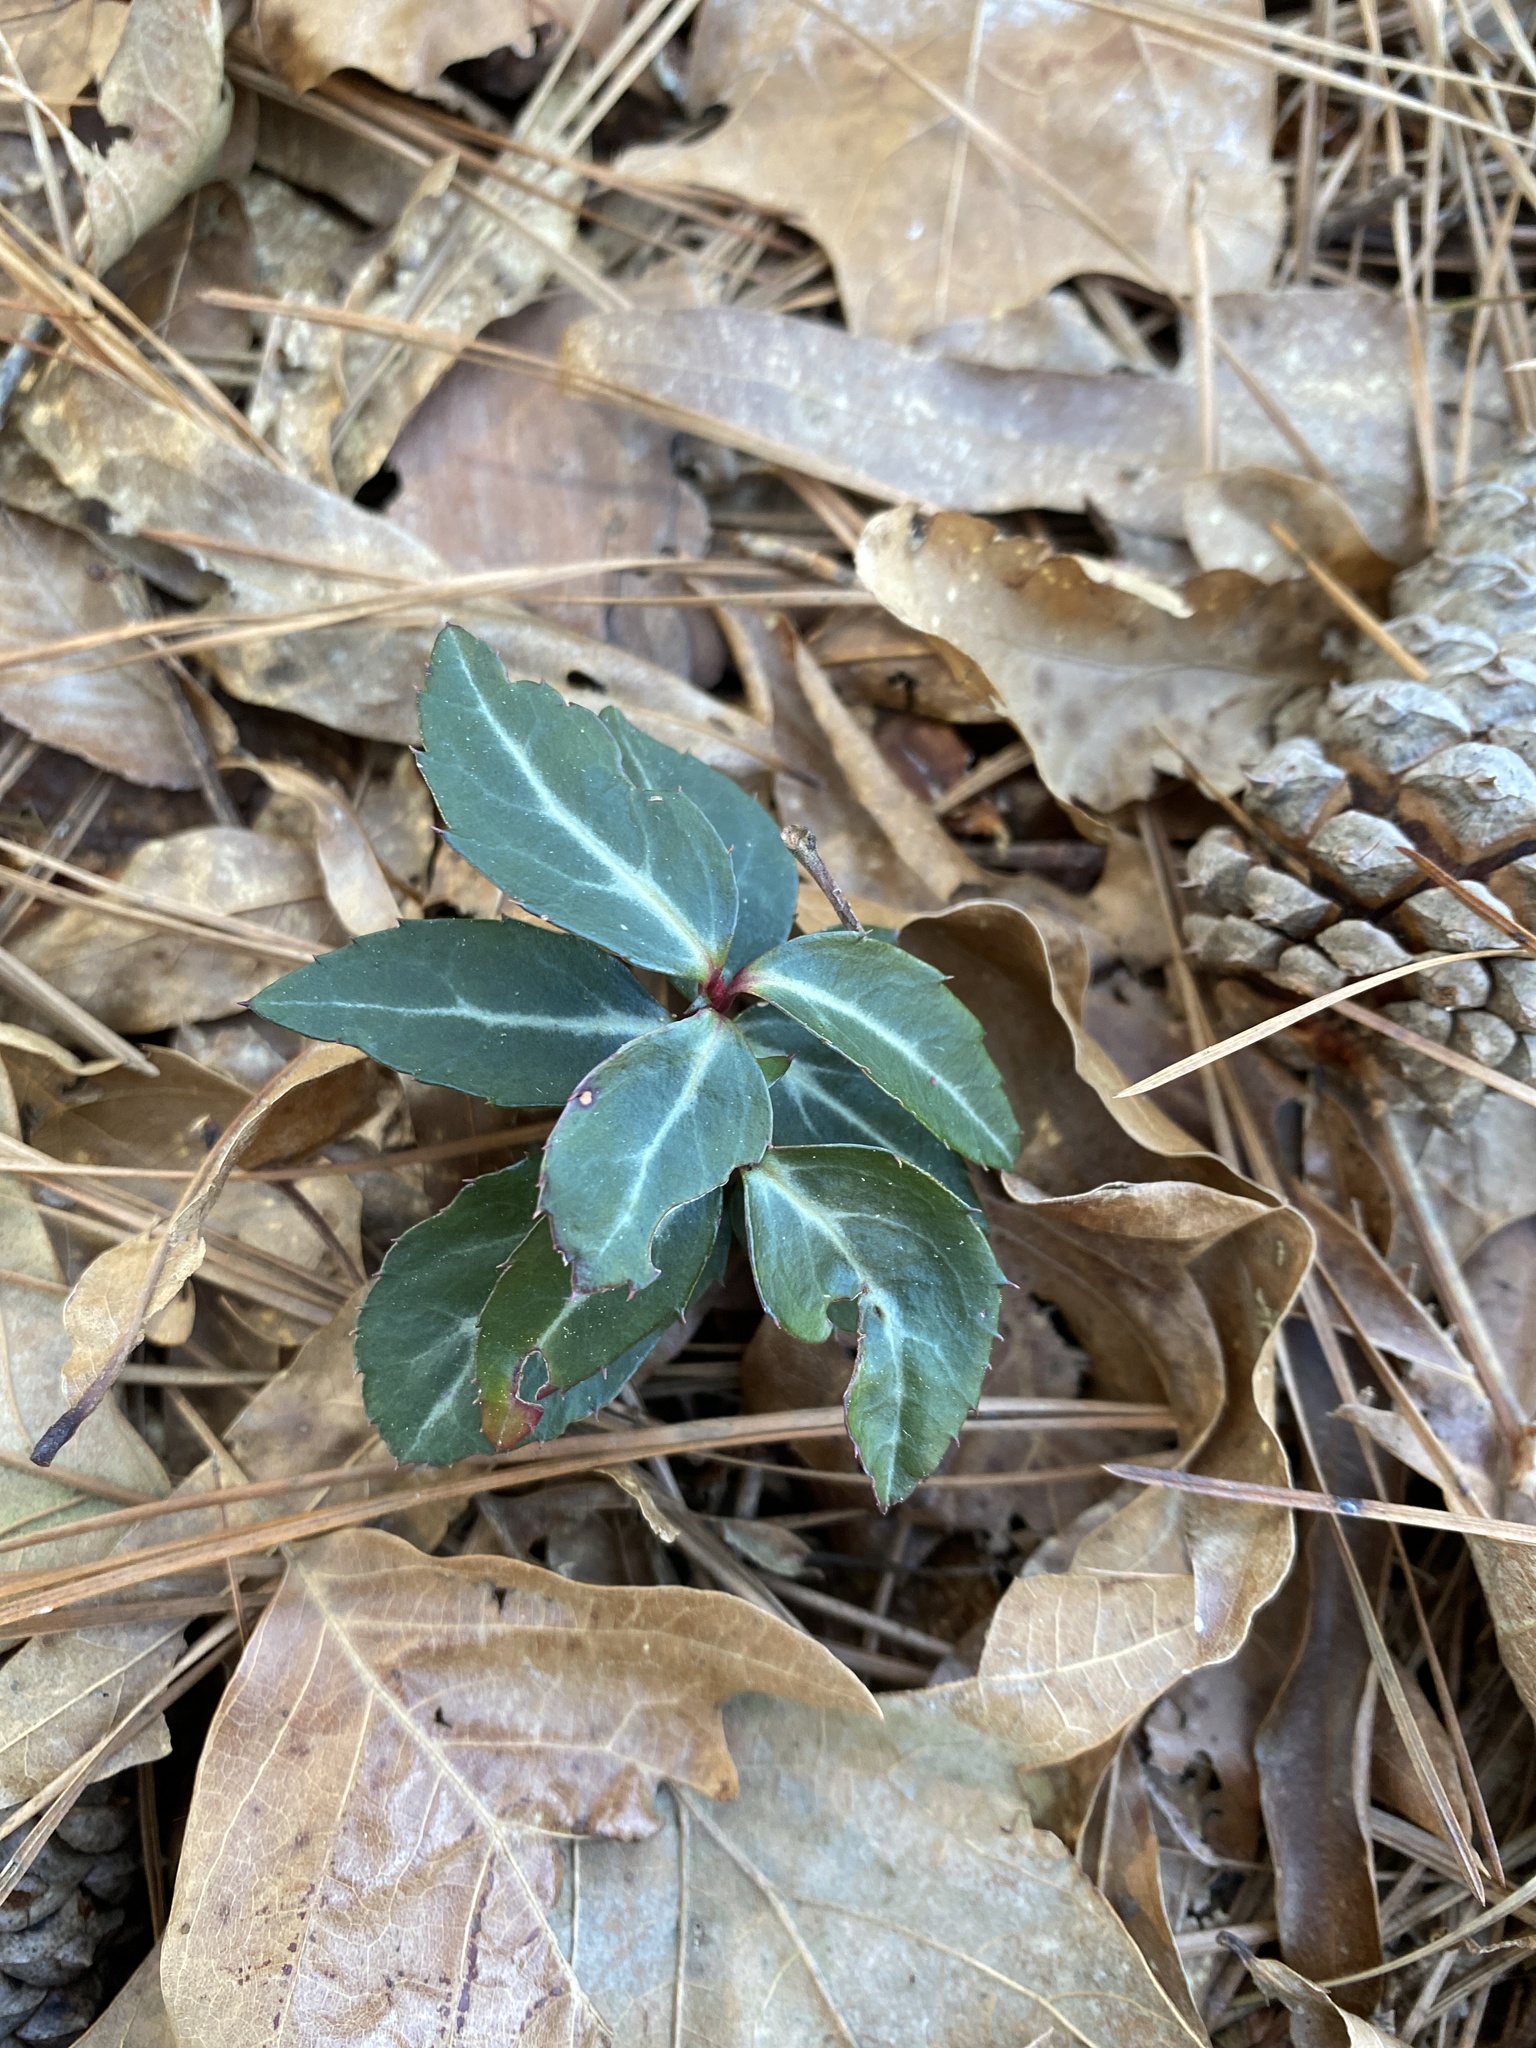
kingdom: Plantae
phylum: Tracheophyta
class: Magnoliopsida
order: Ericales
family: Ericaceae
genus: Chimaphila
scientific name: Chimaphila maculata
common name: Spotted pipsissewa
